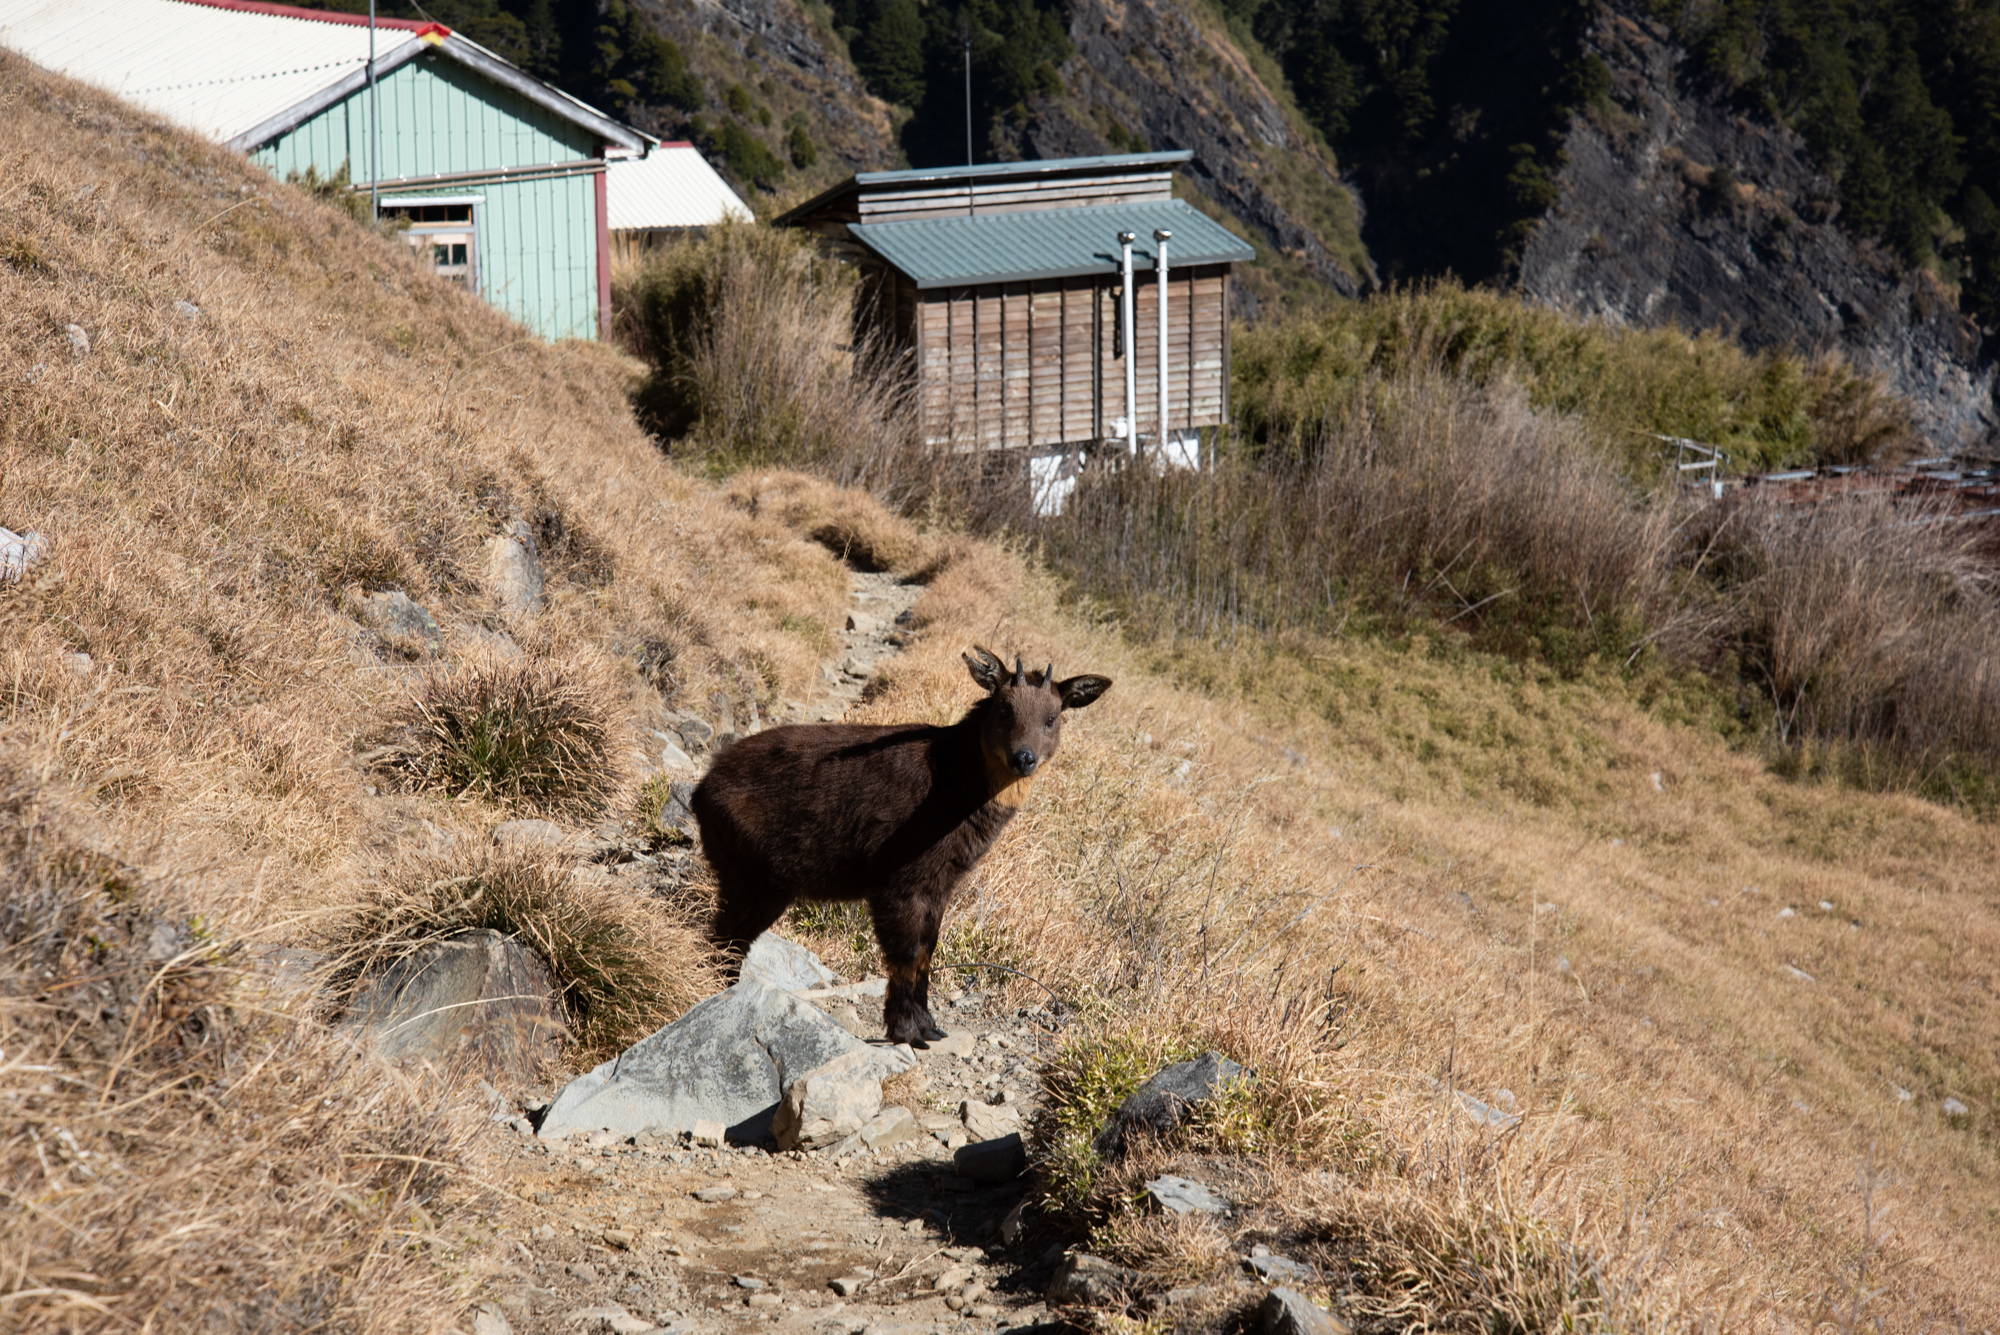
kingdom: Animalia
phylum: Chordata
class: Mammalia
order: Artiodactyla
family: Bovidae
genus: Capricornis
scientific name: Capricornis swinhoei
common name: Formosan serow
